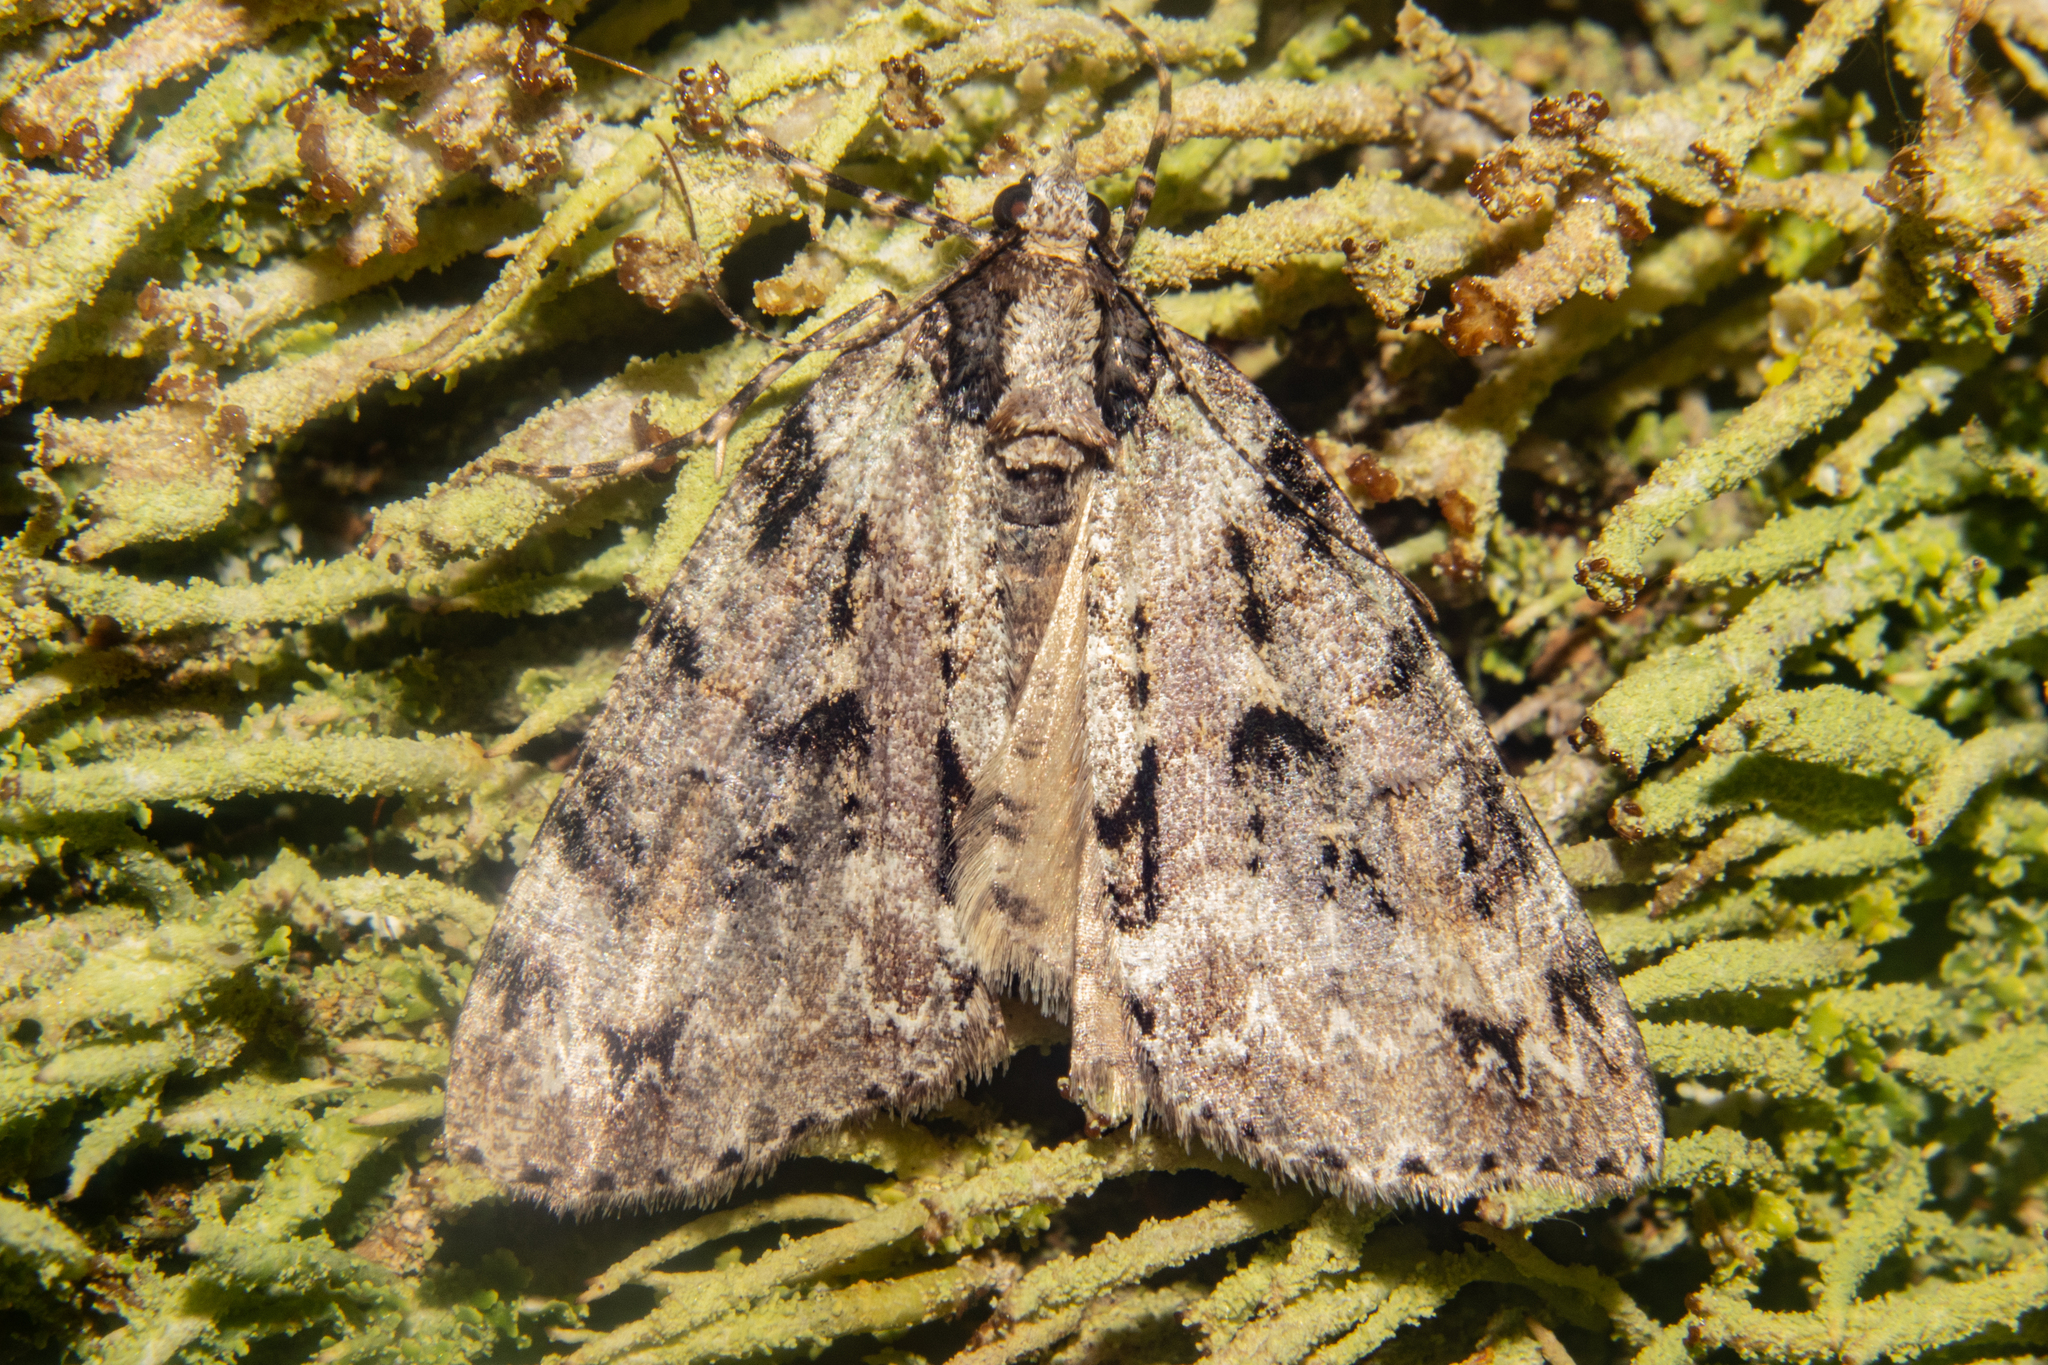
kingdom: Animalia
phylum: Arthropoda
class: Insecta
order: Lepidoptera
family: Geometridae
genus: Pseudocoremia
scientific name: Pseudocoremia suavis
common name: Common forest looper
